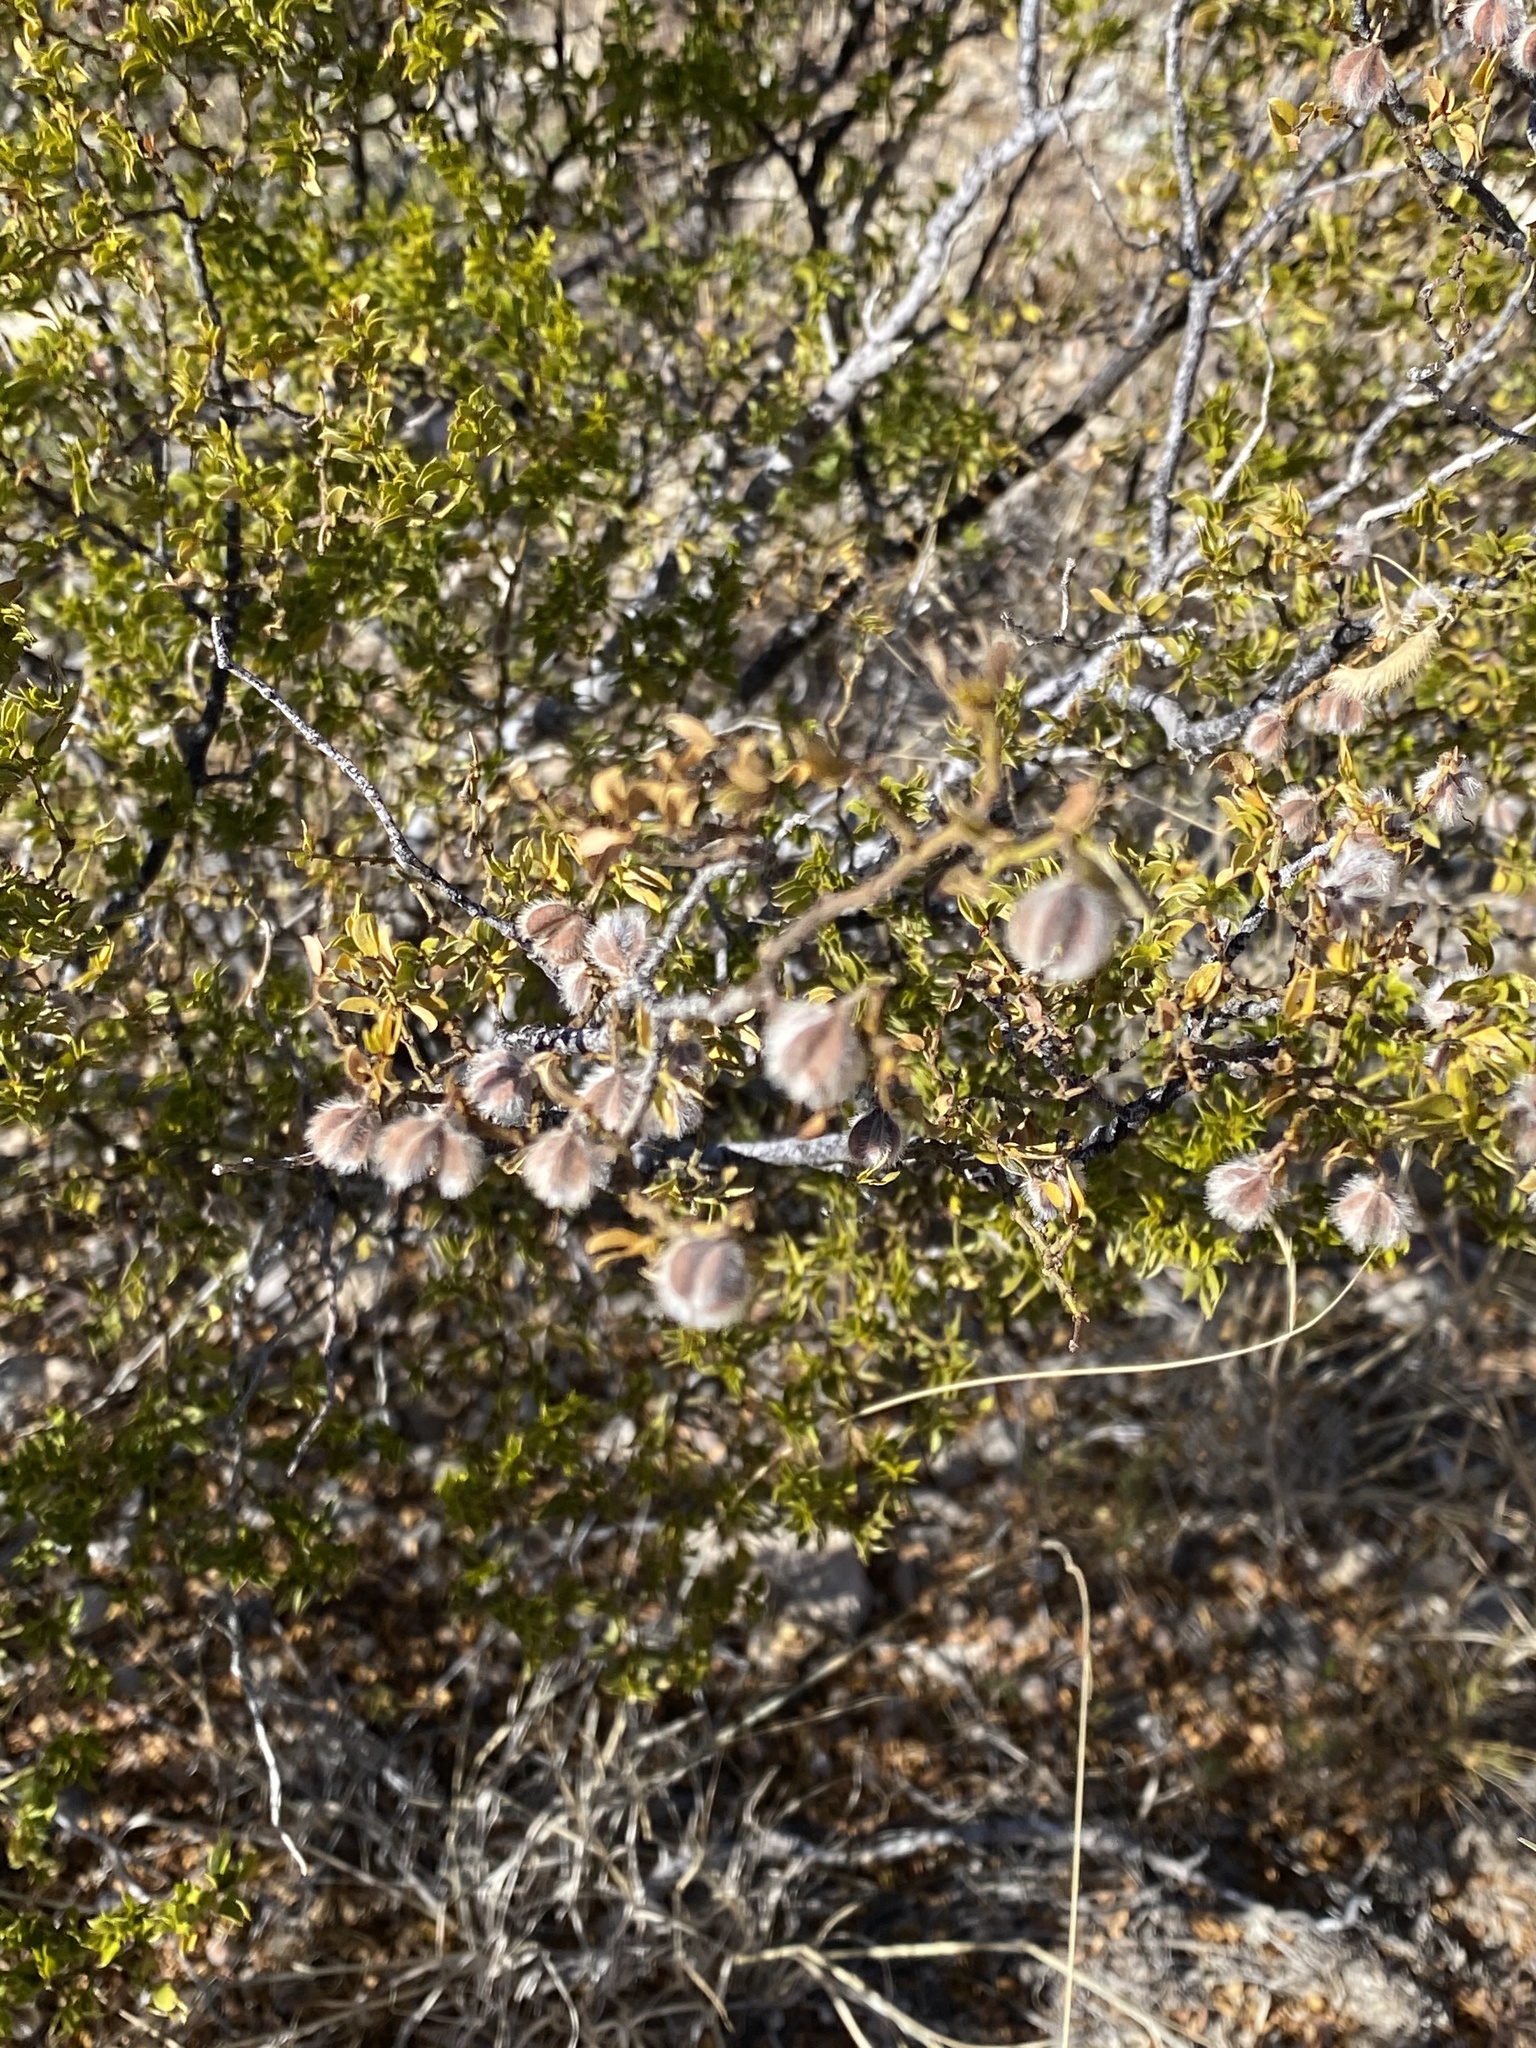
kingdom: Plantae
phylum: Tracheophyta
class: Magnoliopsida
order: Zygophyllales
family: Zygophyllaceae
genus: Larrea
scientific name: Larrea tridentata
